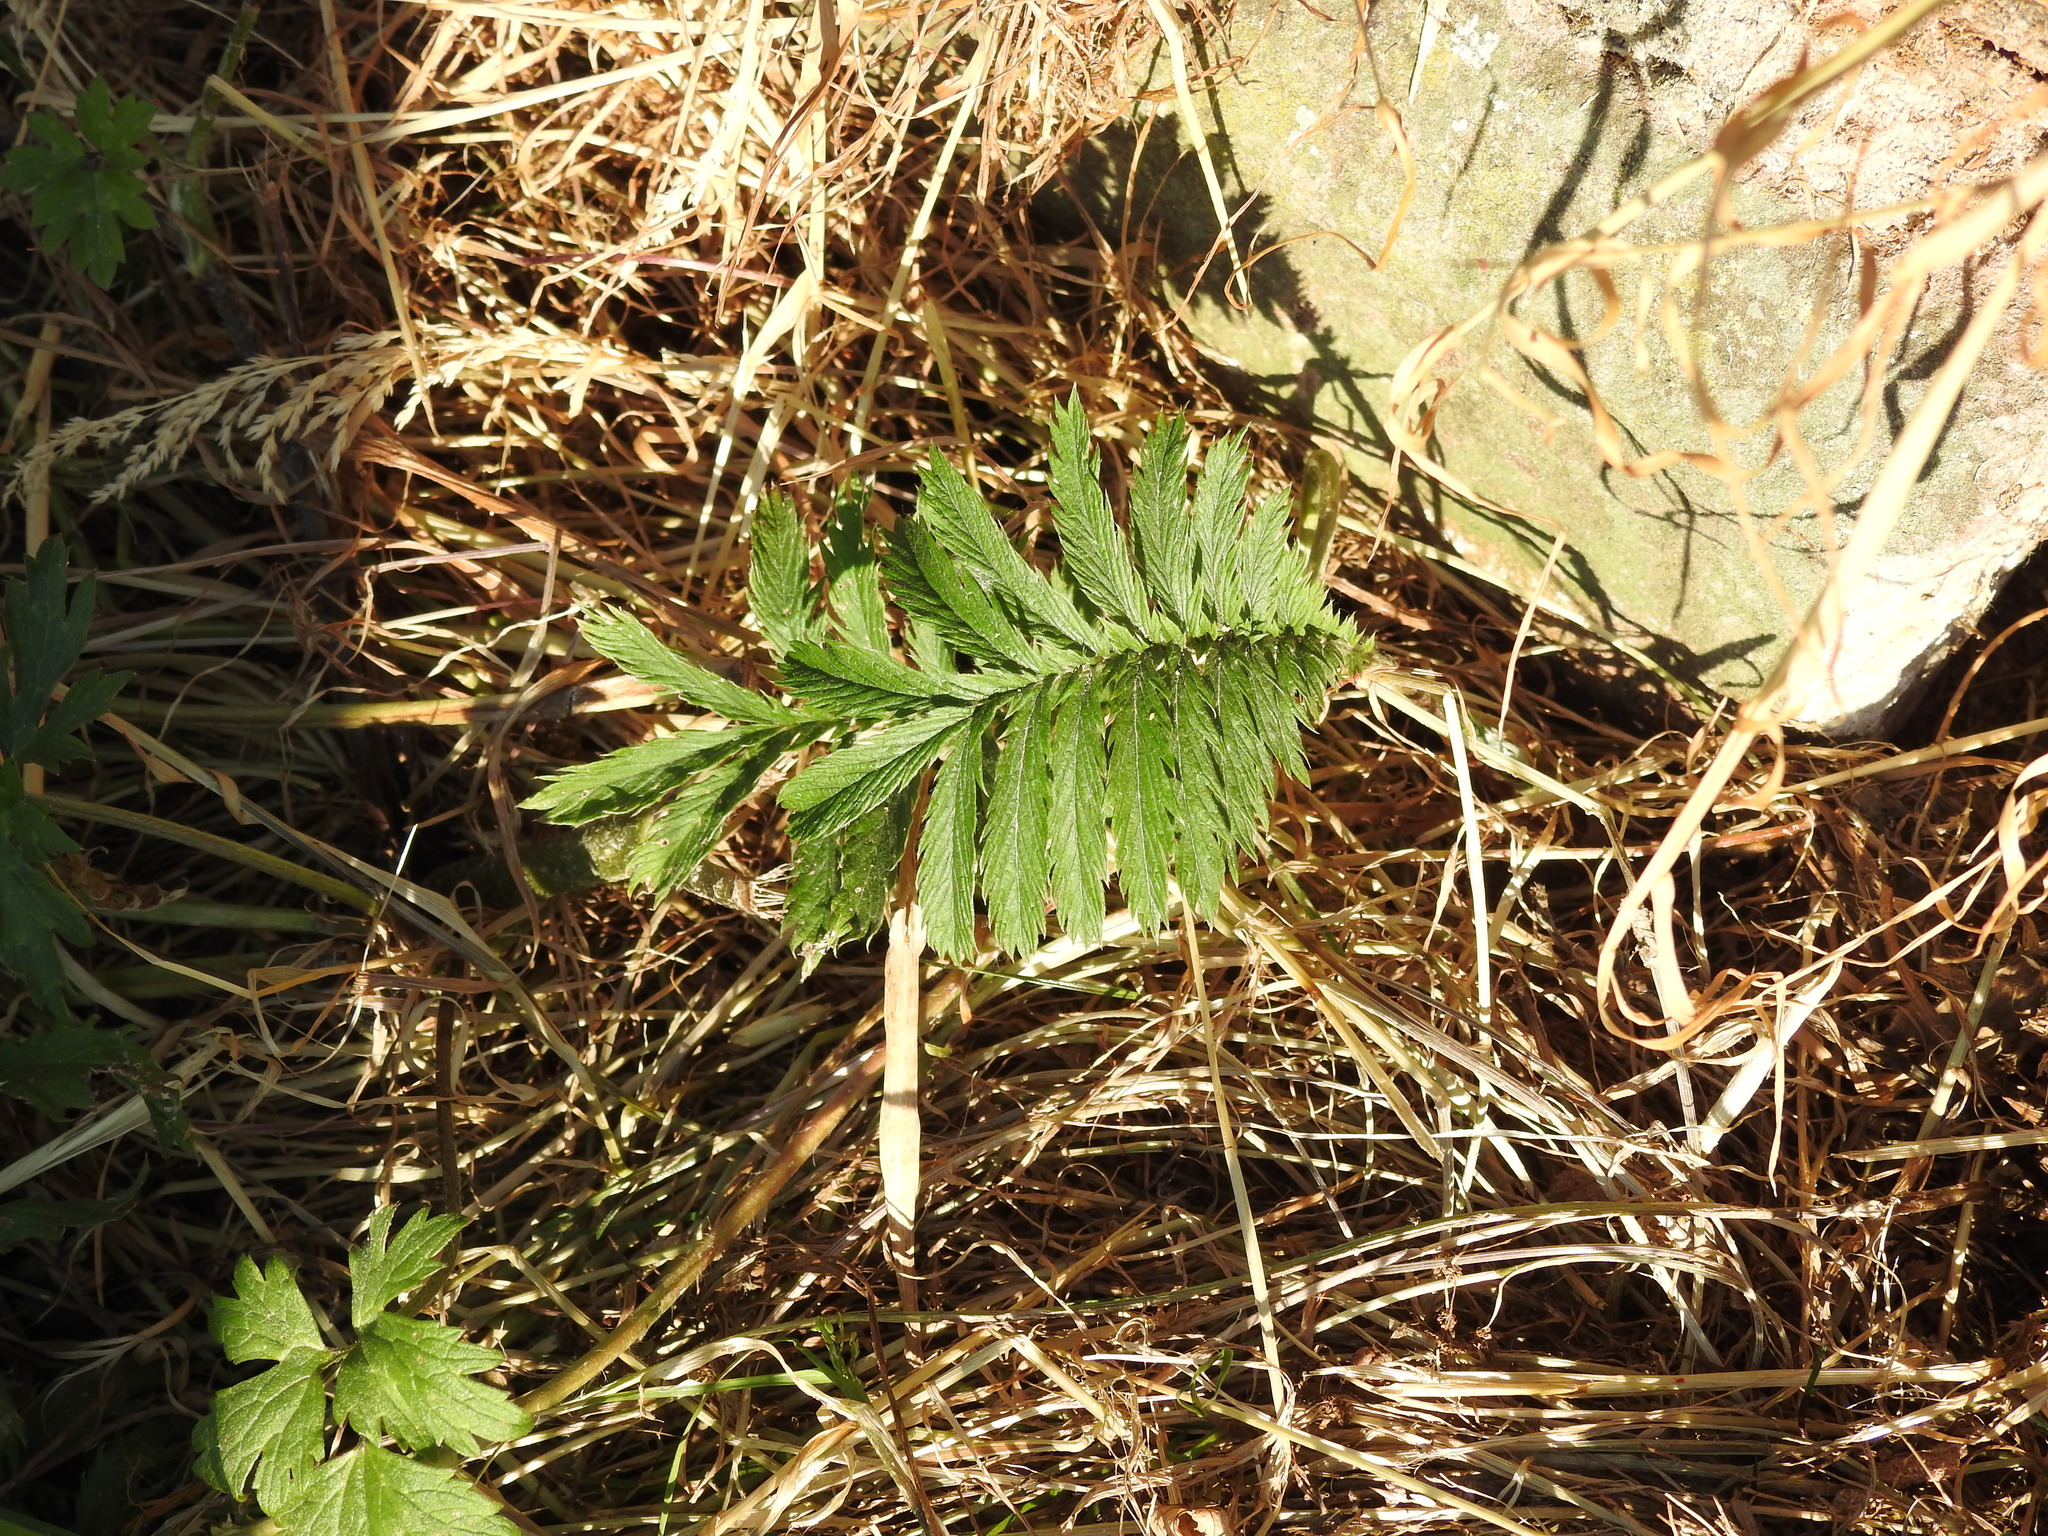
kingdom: Plantae
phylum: Tracheophyta
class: Magnoliopsida
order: Rosales
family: Rosaceae
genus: Argentina
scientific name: Argentina anserina
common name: Common silverweed
